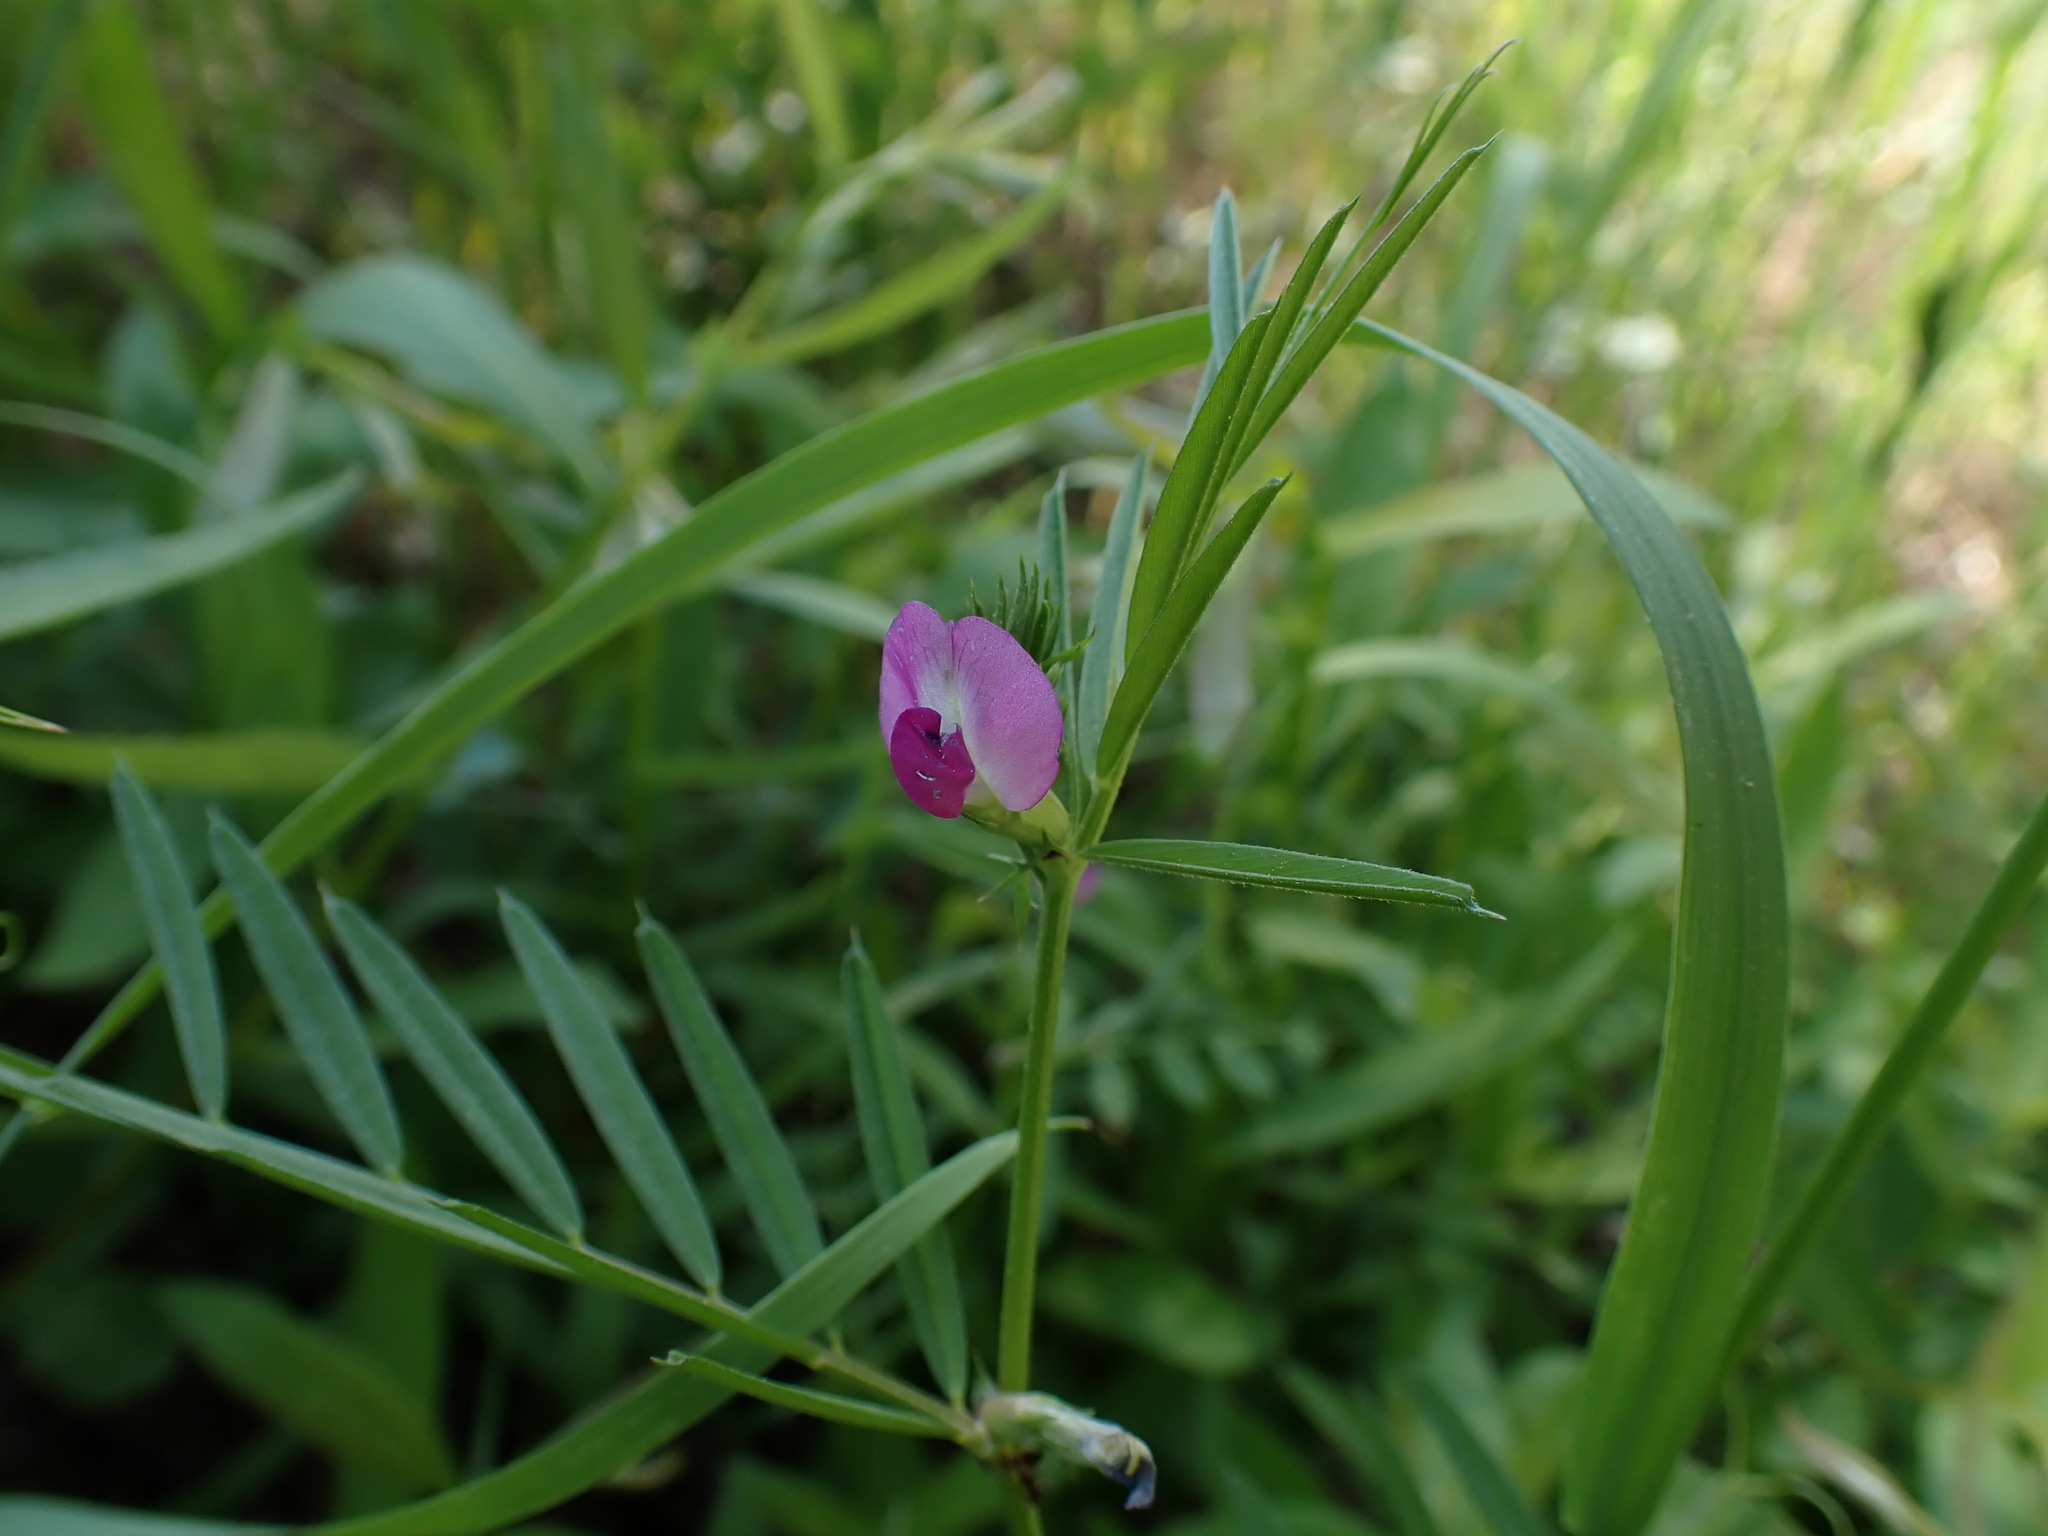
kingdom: Plantae
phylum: Tracheophyta
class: Magnoliopsida
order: Fabales
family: Fabaceae
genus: Vicia
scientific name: Vicia sativa
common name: Garden vetch
